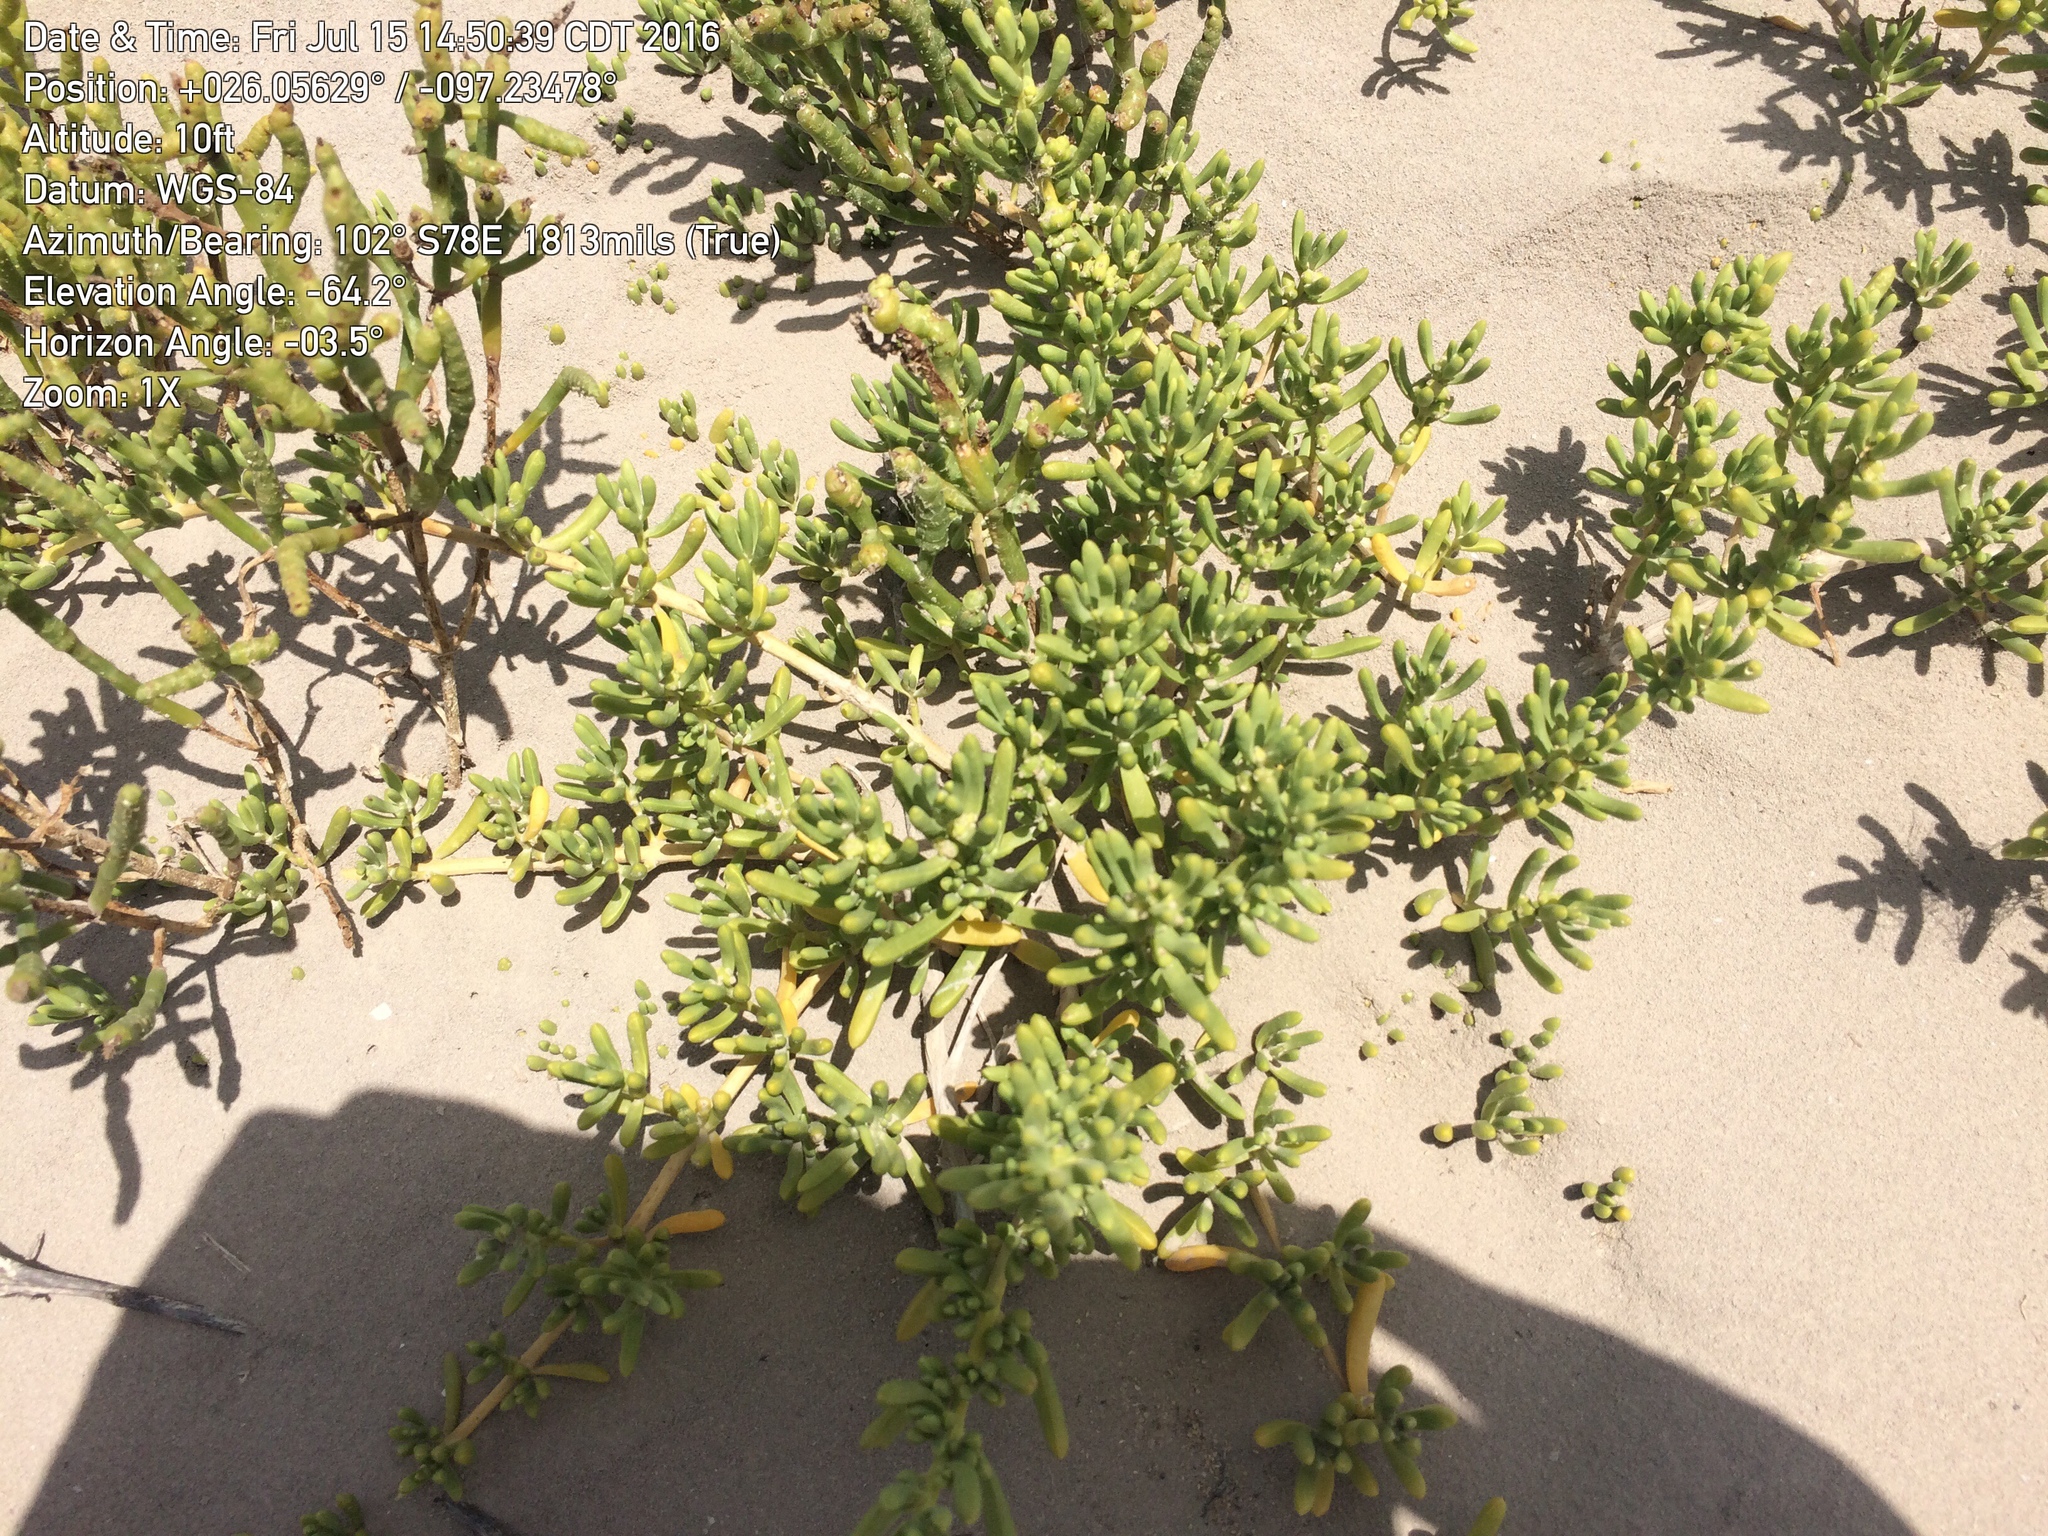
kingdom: Plantae
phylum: Tracheophyta
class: Magnoliopsida
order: Brassicales
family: Bataceae
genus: Batis
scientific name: Batis maritima
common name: Turtleweed
